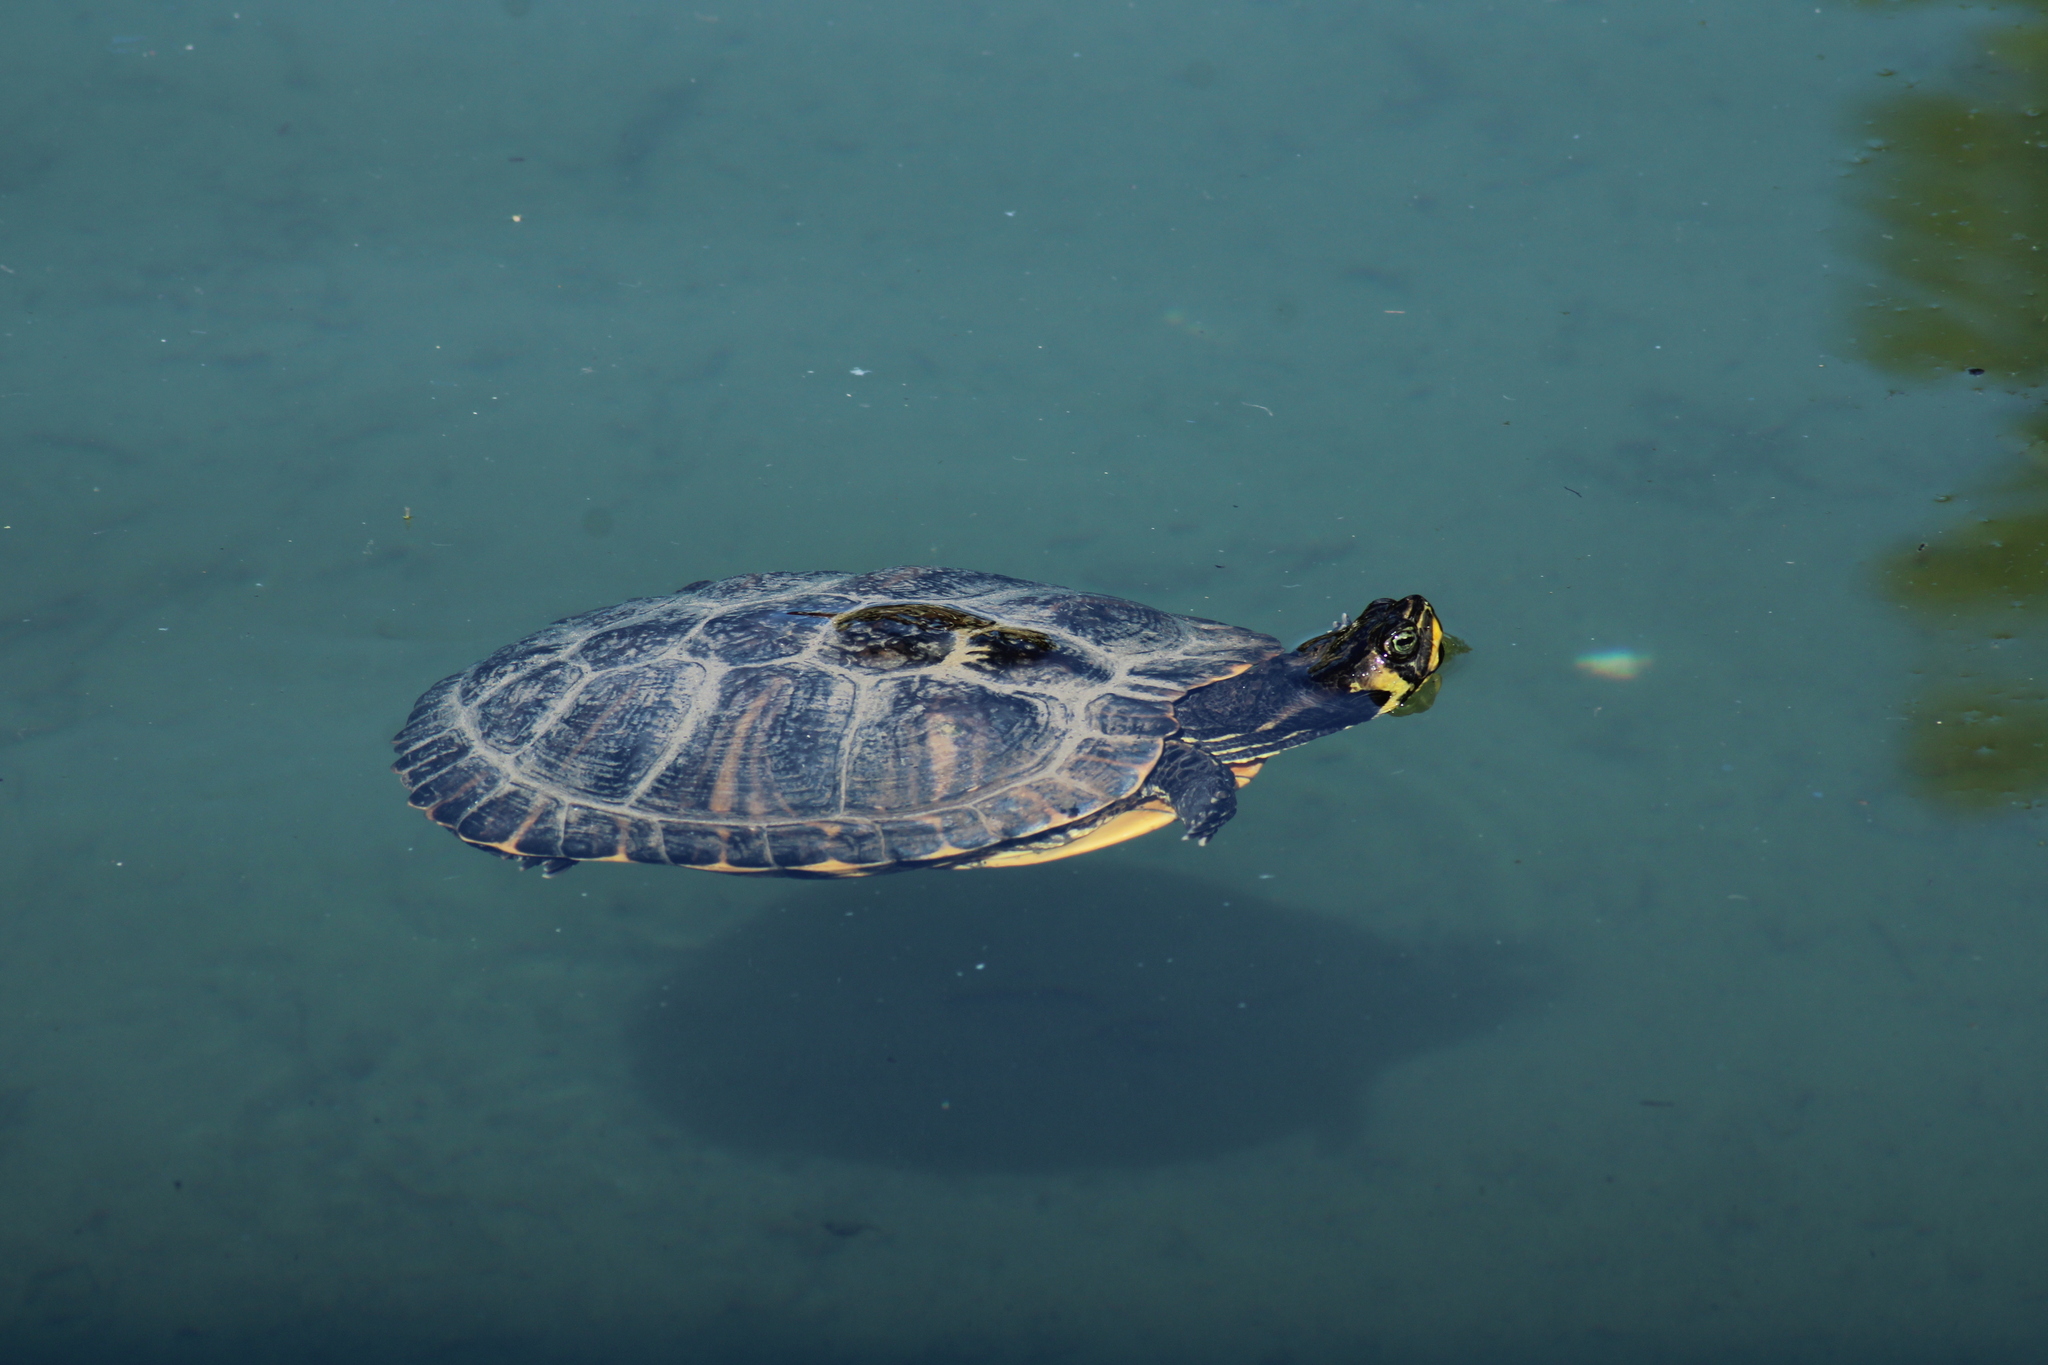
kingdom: Animalia
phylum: Chordata
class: Testudines
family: Emydidae
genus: Trachemys
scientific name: Trachemys scripta
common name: Slider
